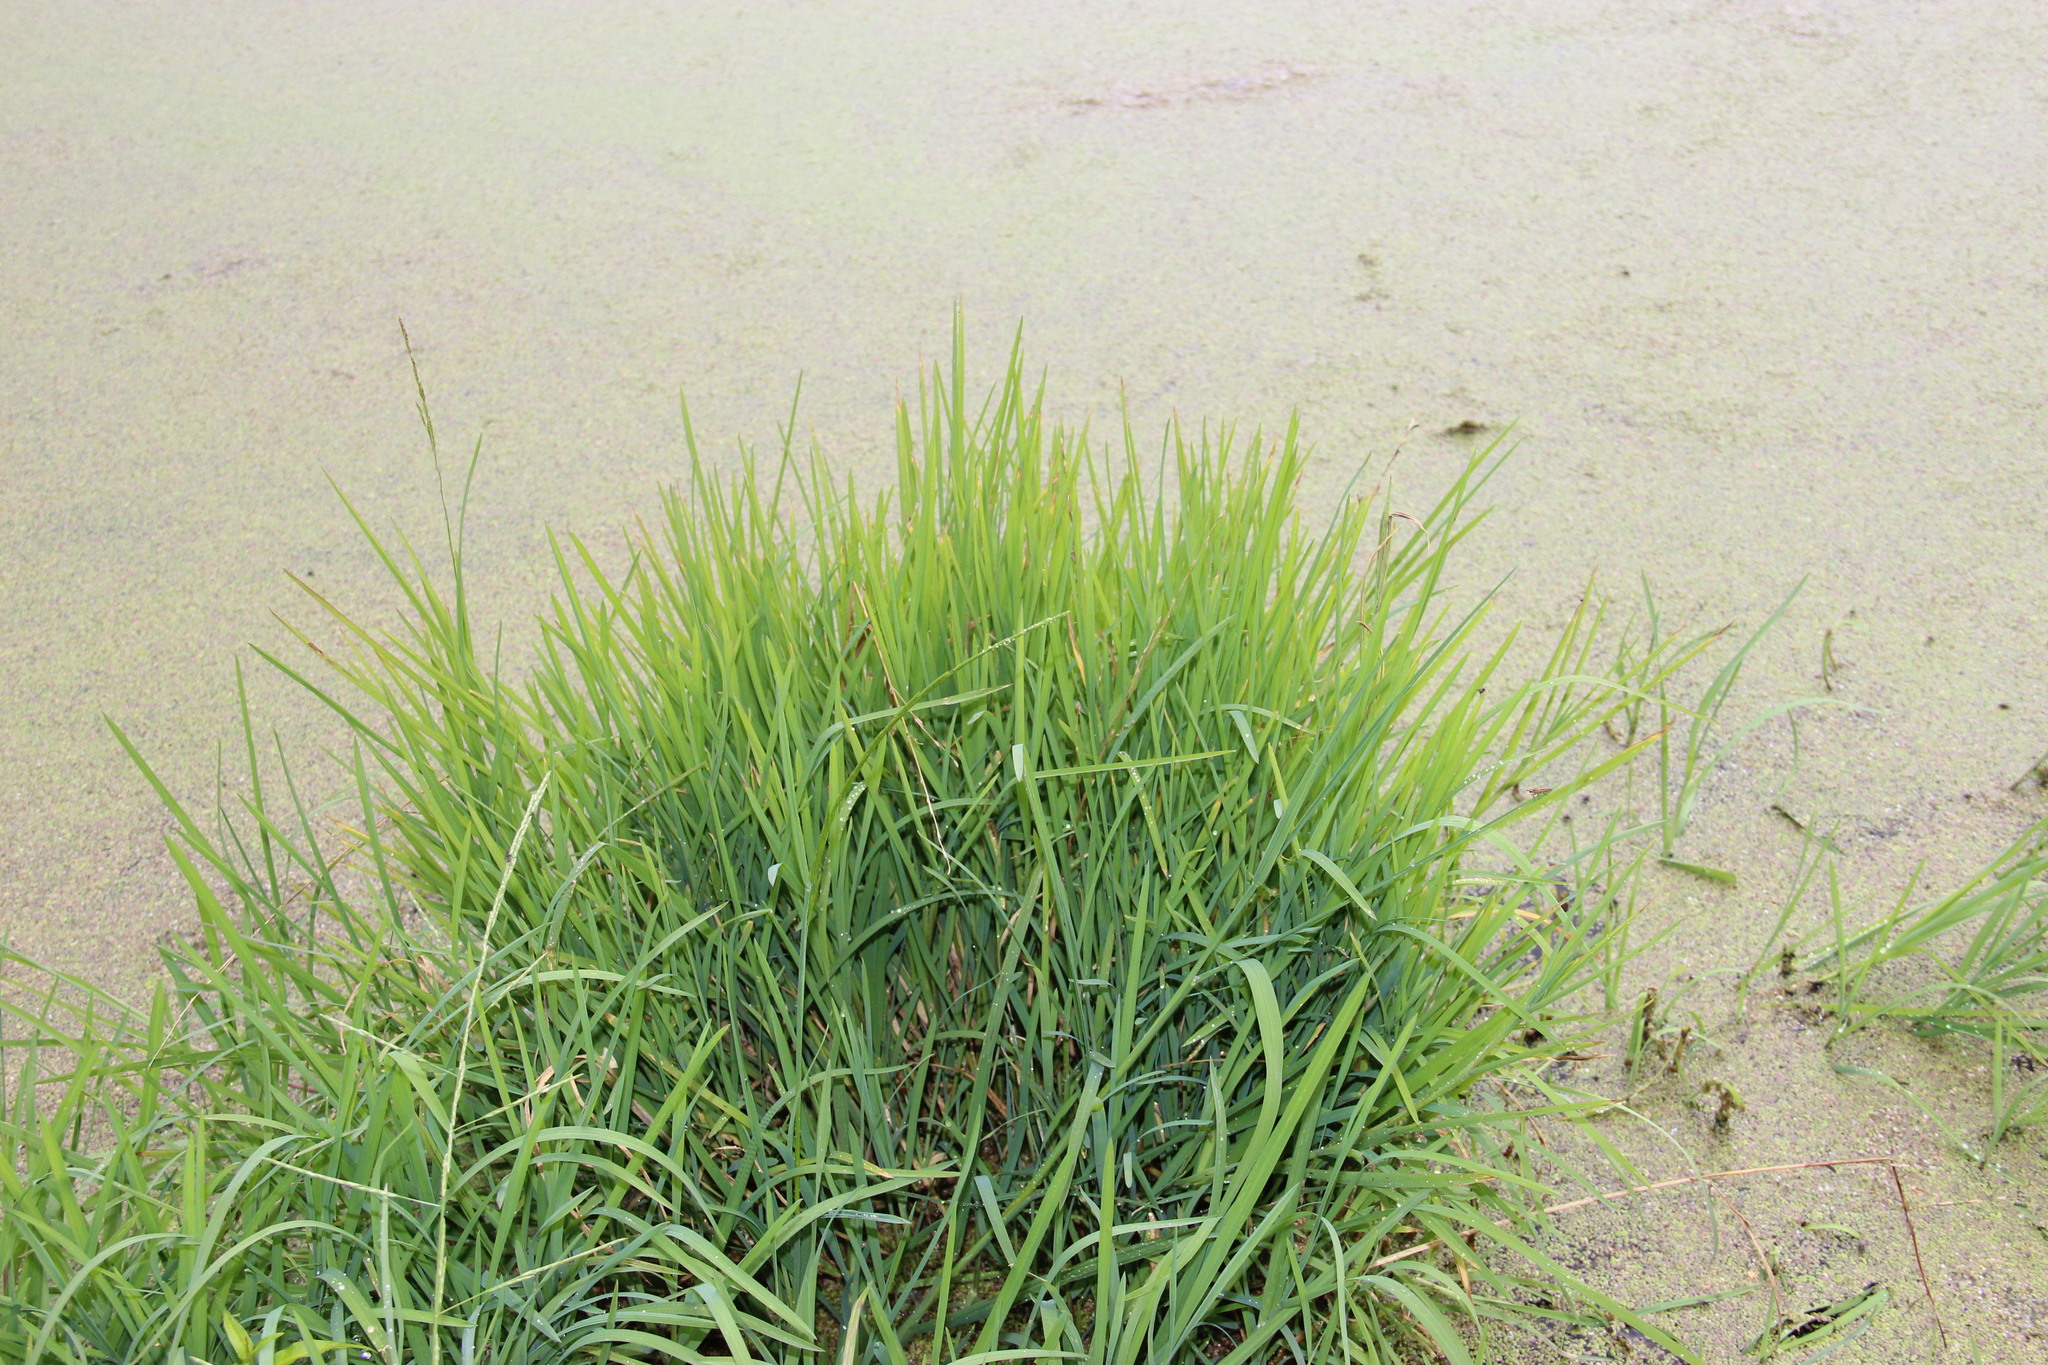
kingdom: Plantae
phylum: Tracheophyta
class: Liliopsida
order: Poales
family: Poaceae
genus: Glyceria
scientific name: Glyceria fluitans
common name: Floating sweet-grass
